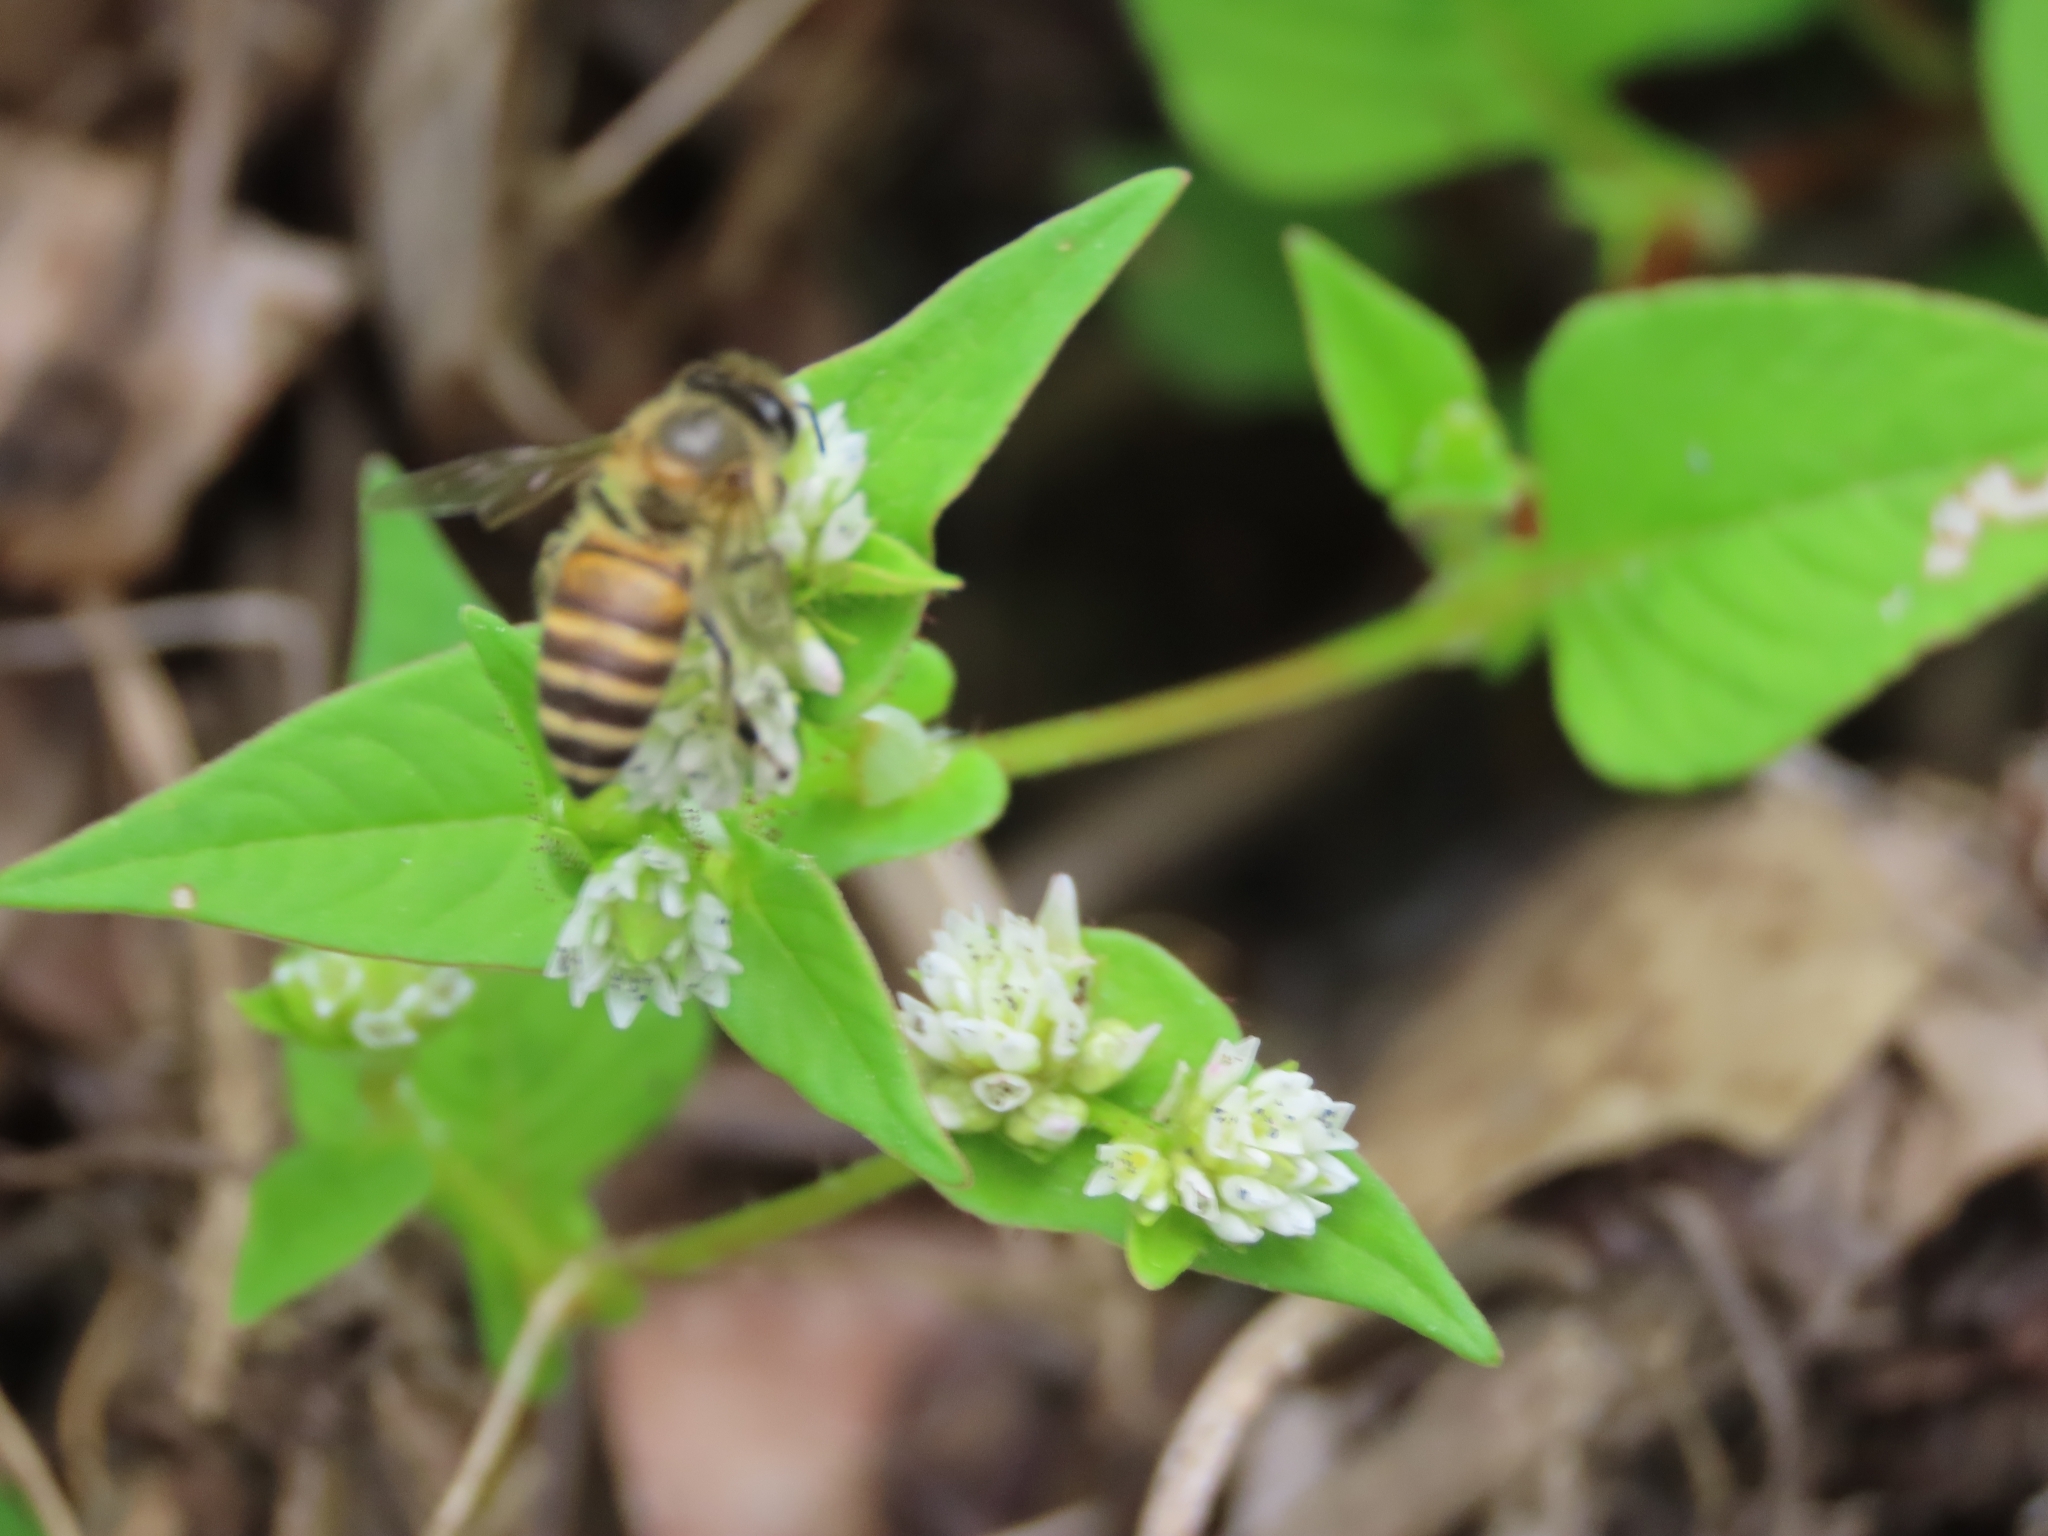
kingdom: Animalia
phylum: Arthropoda
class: Insecta
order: Hymenoptera
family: Apidae
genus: Apis
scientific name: Apis cerana
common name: Honey bee
